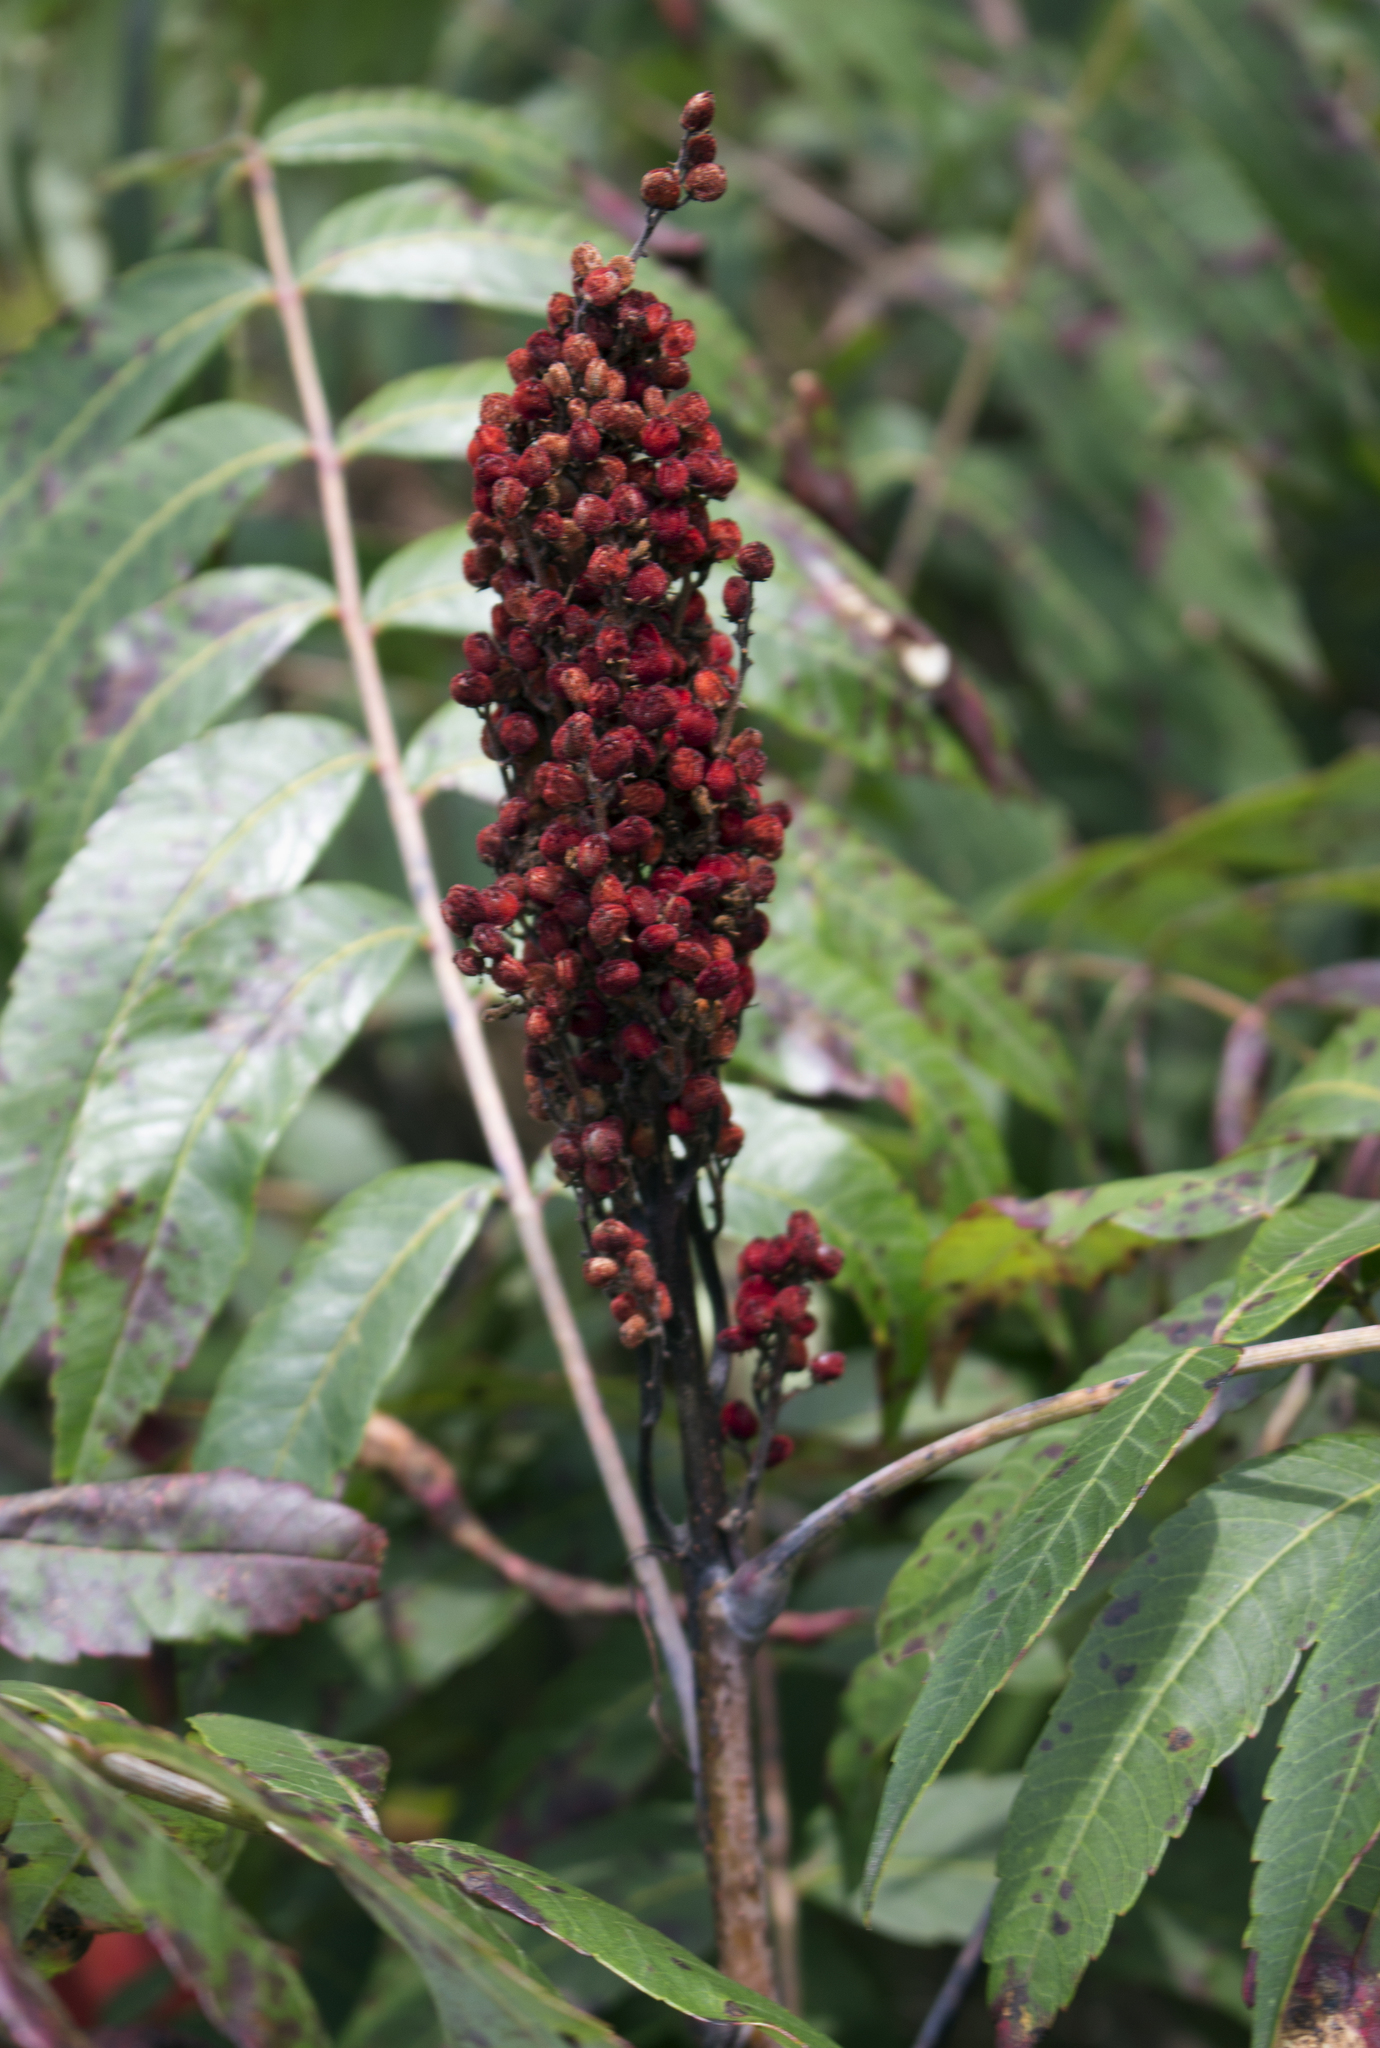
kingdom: Plantae
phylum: Tracheophyta
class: Magnoliopsida
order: Sapindales
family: Anacardiaceae
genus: Rhus
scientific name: Rhus glabra
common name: Scarlet sumac
